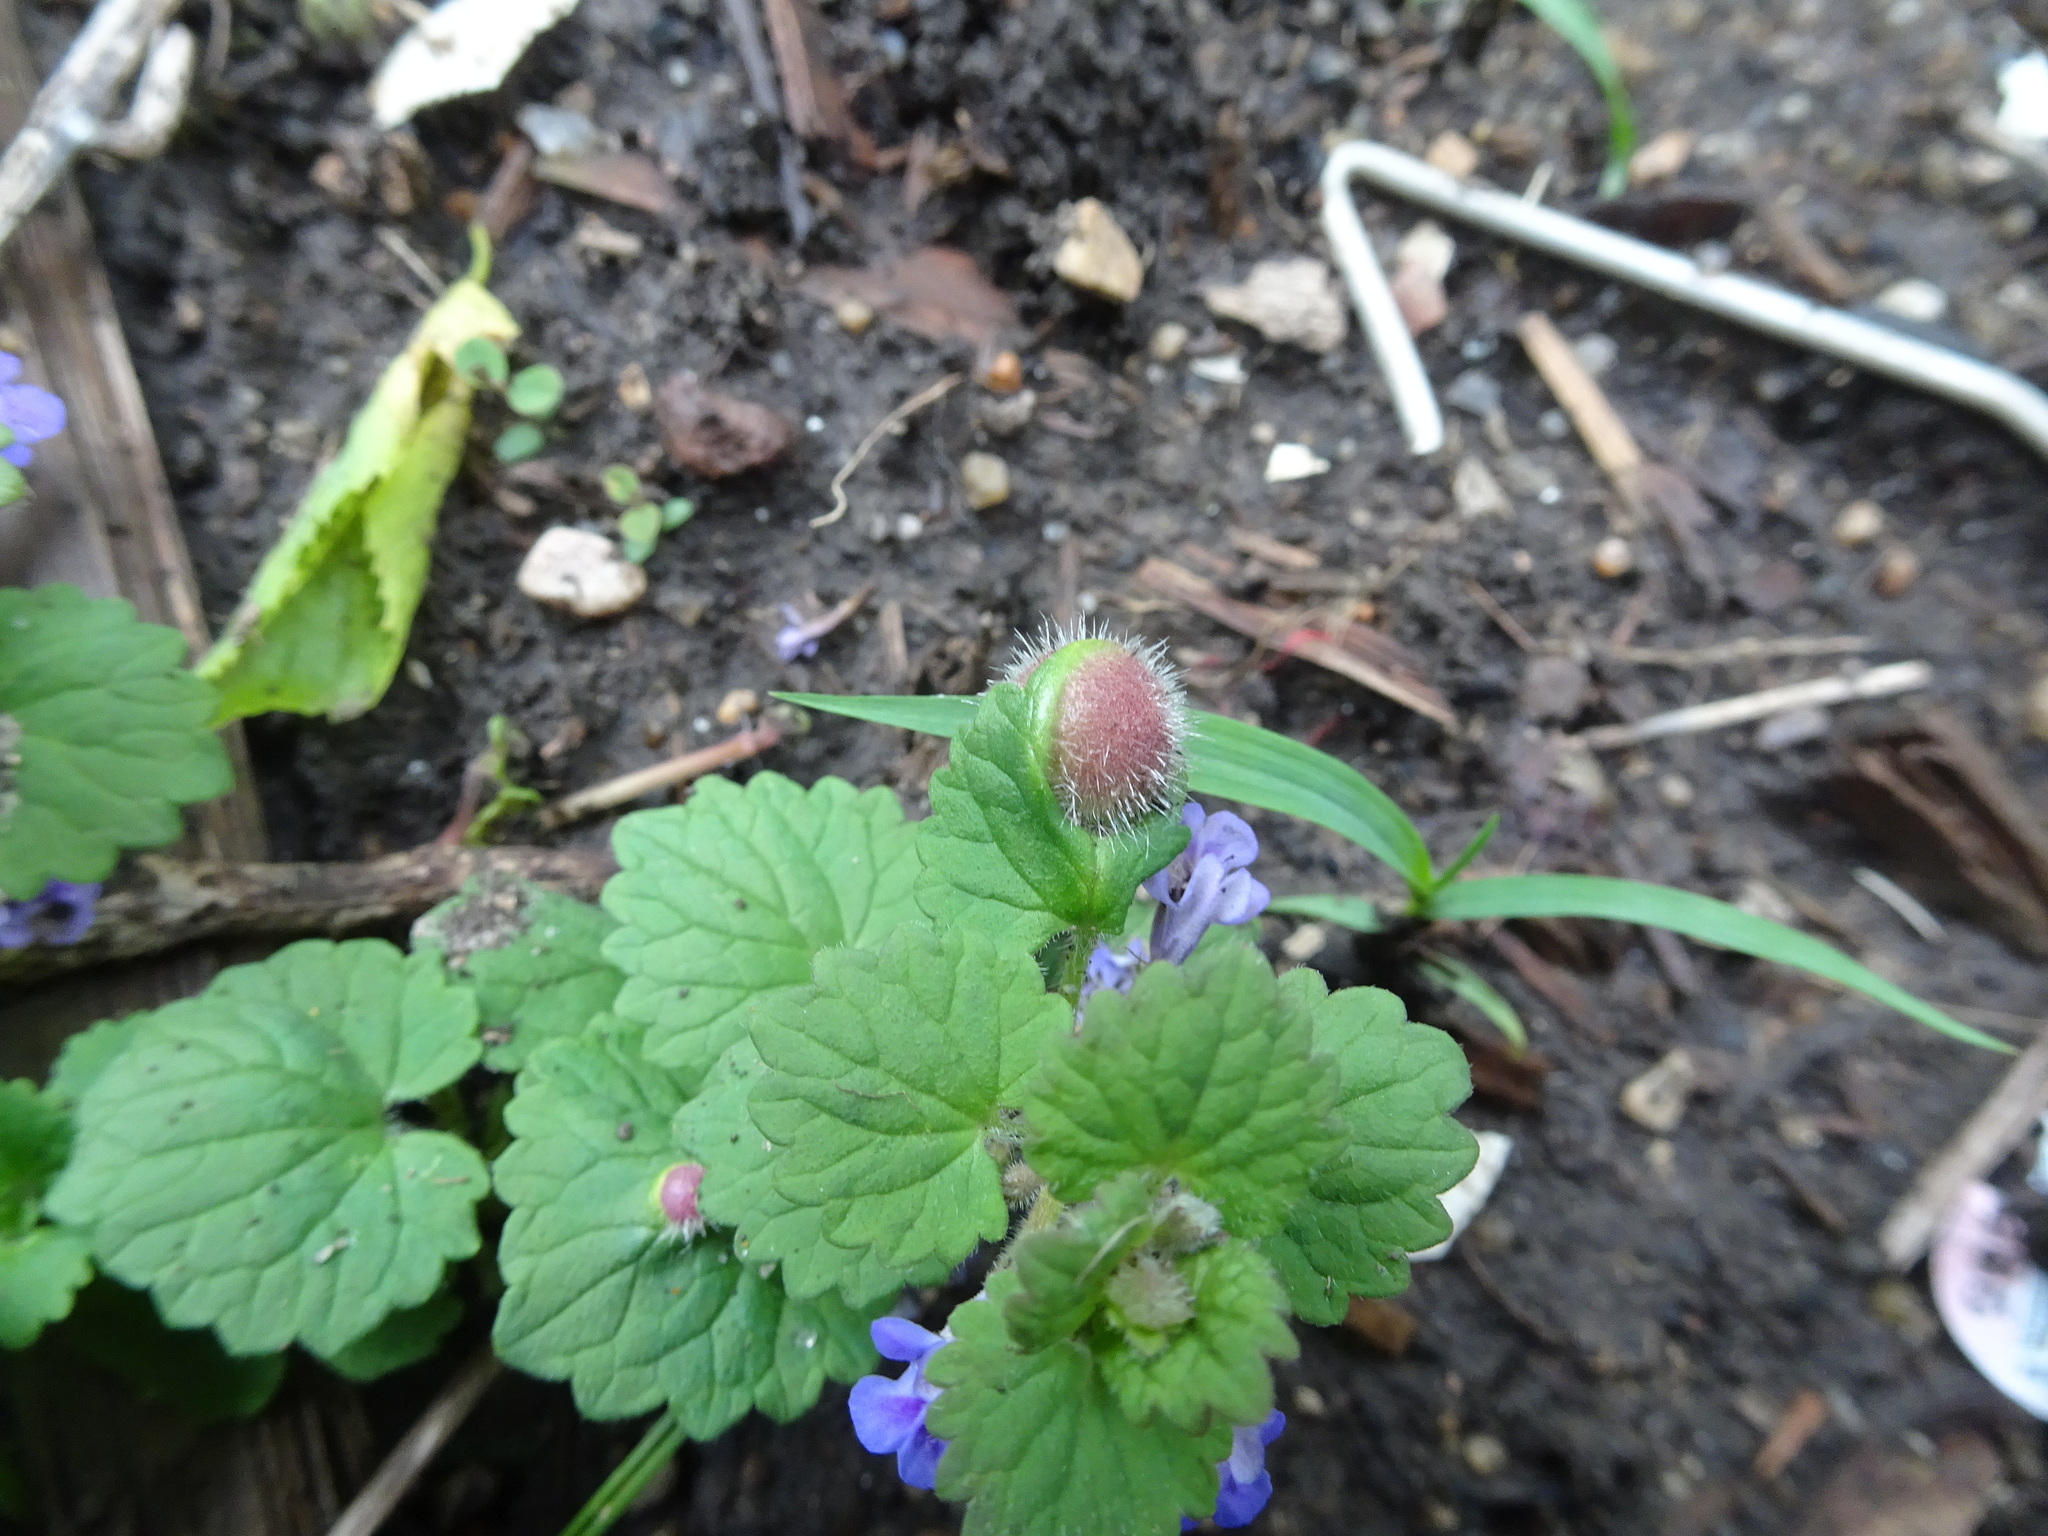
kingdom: Animalia
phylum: Arthropoda
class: Insecta
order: Hymenoptera
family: Cynipidae
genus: Liposthenes
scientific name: Liposthenes glechomae
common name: Gall wasp
